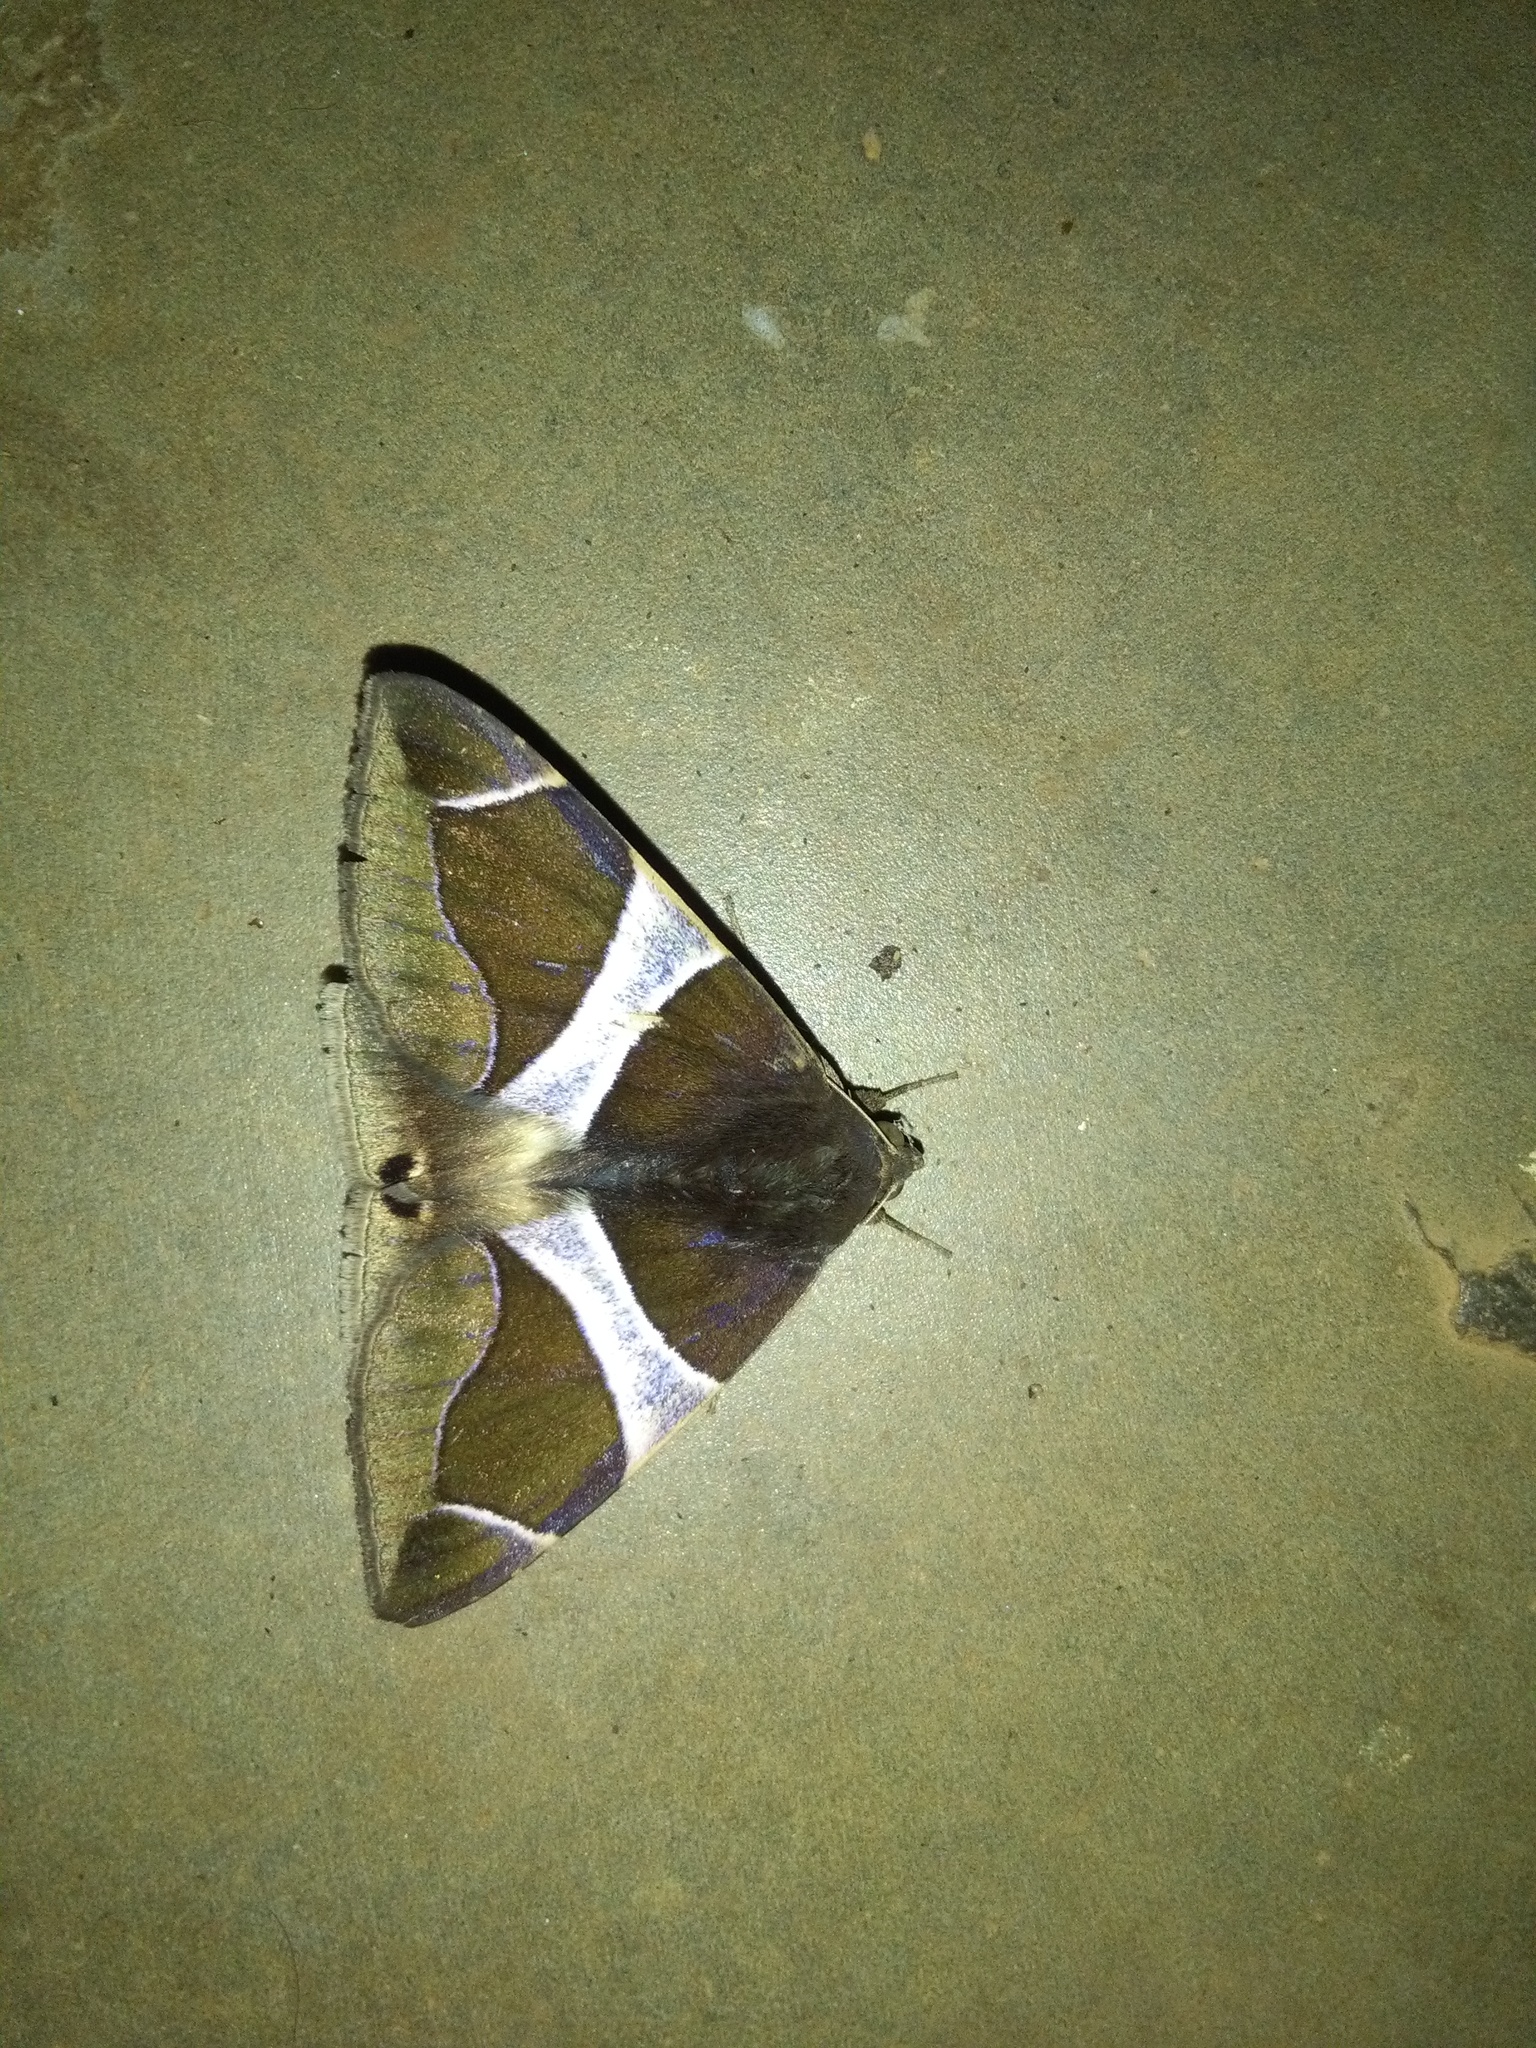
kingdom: Animalia
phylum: Arthropoda
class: Insecta
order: Lepidoptera
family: Erebidae
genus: Bastilla
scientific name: Bastilla crameri
